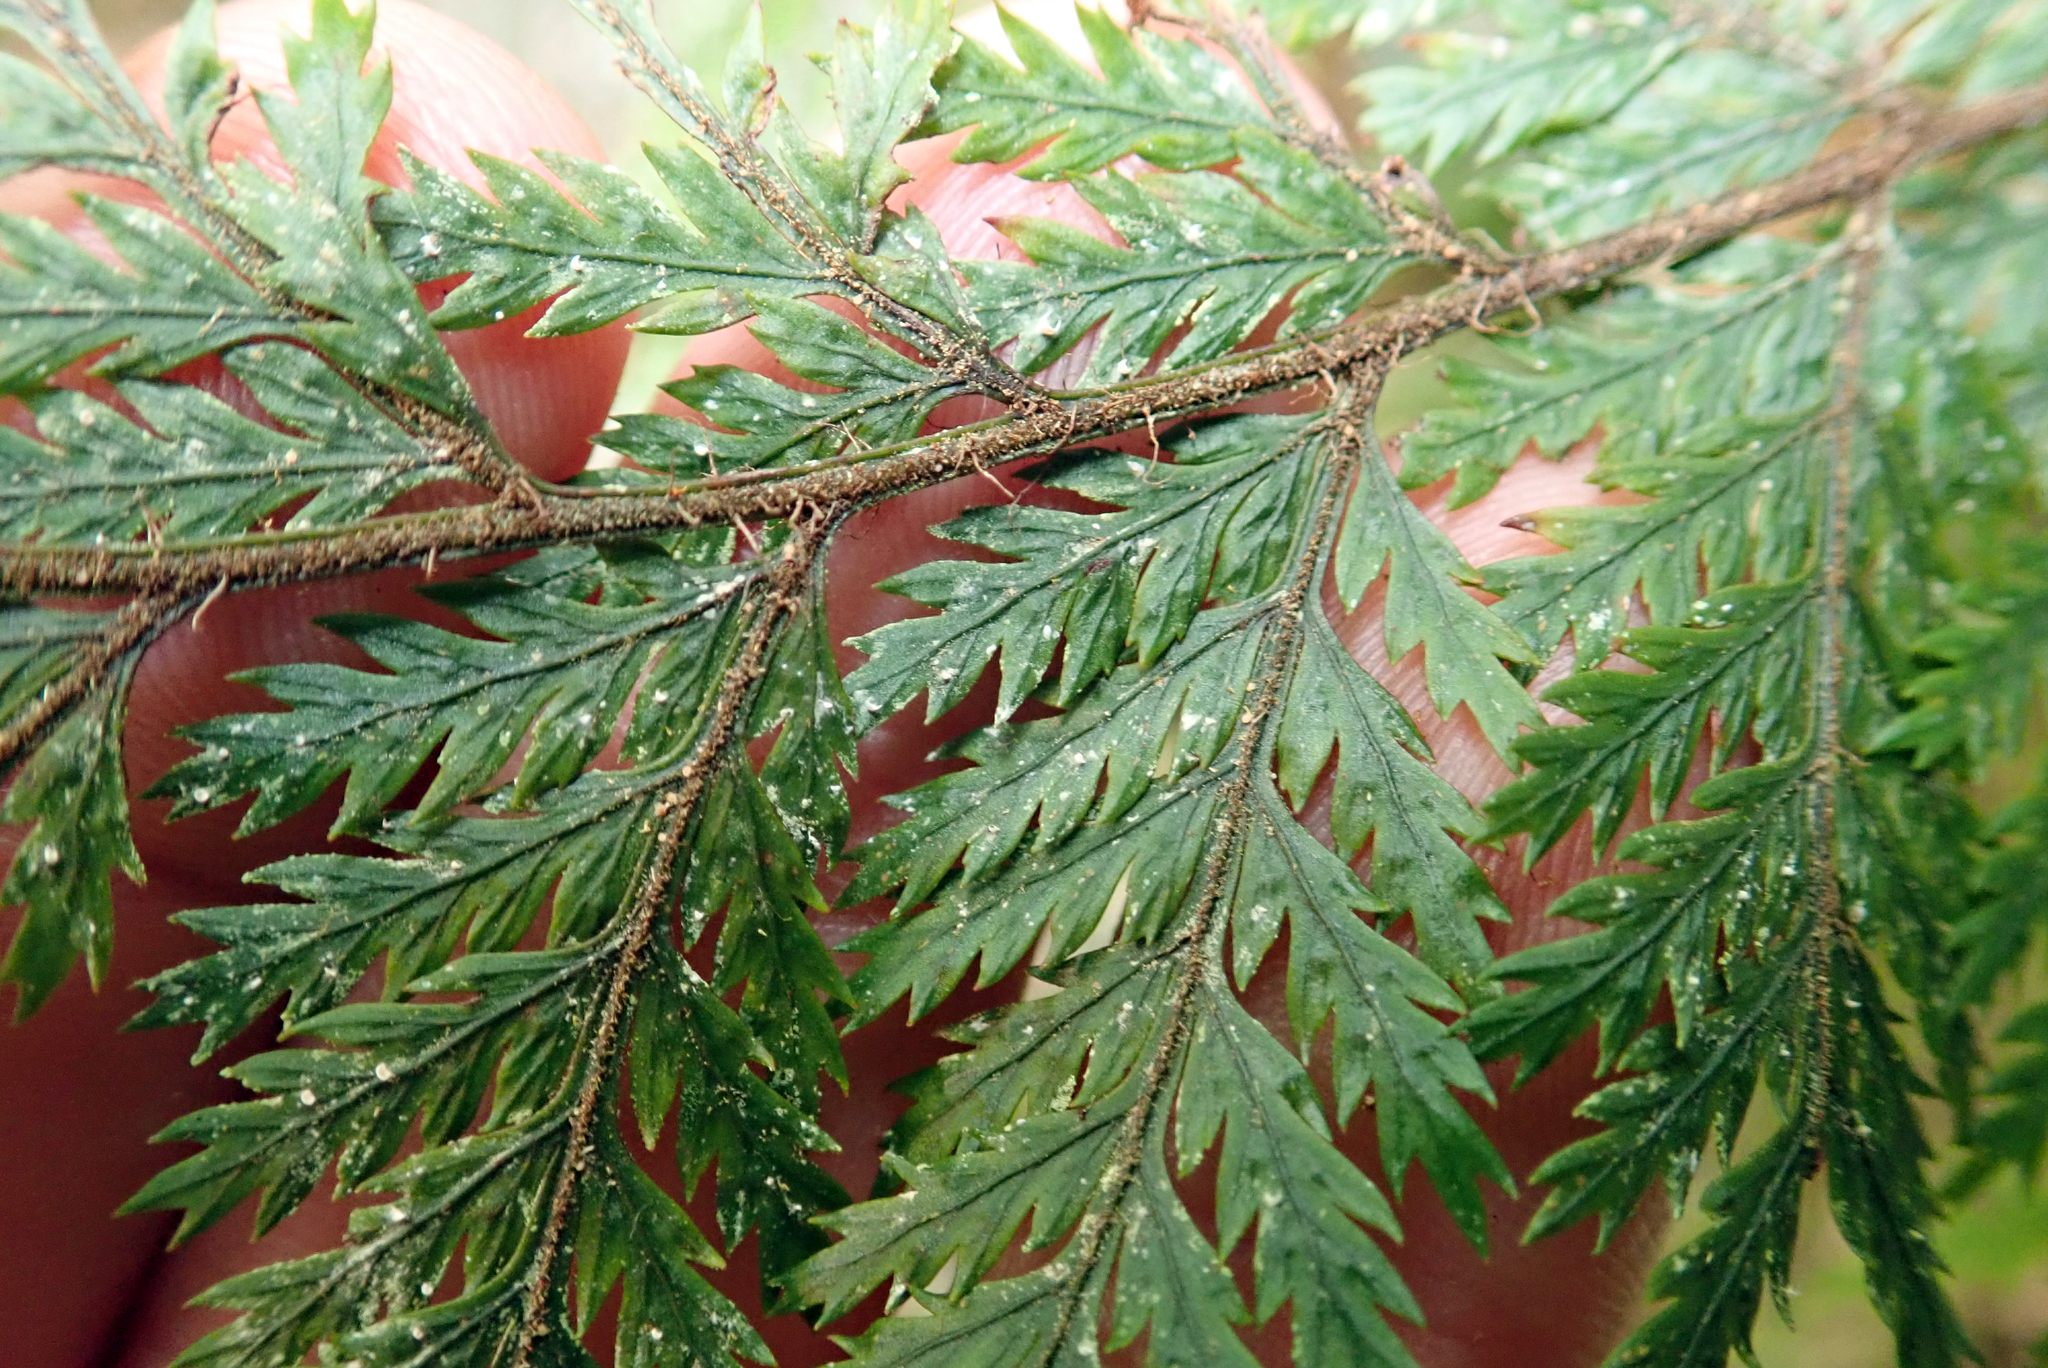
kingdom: Fungi
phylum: Ascomycota
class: Lecanoromycetes
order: Lecanorales
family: Byssolomataceae
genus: Badimiella
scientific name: Badimiella pteridophila
